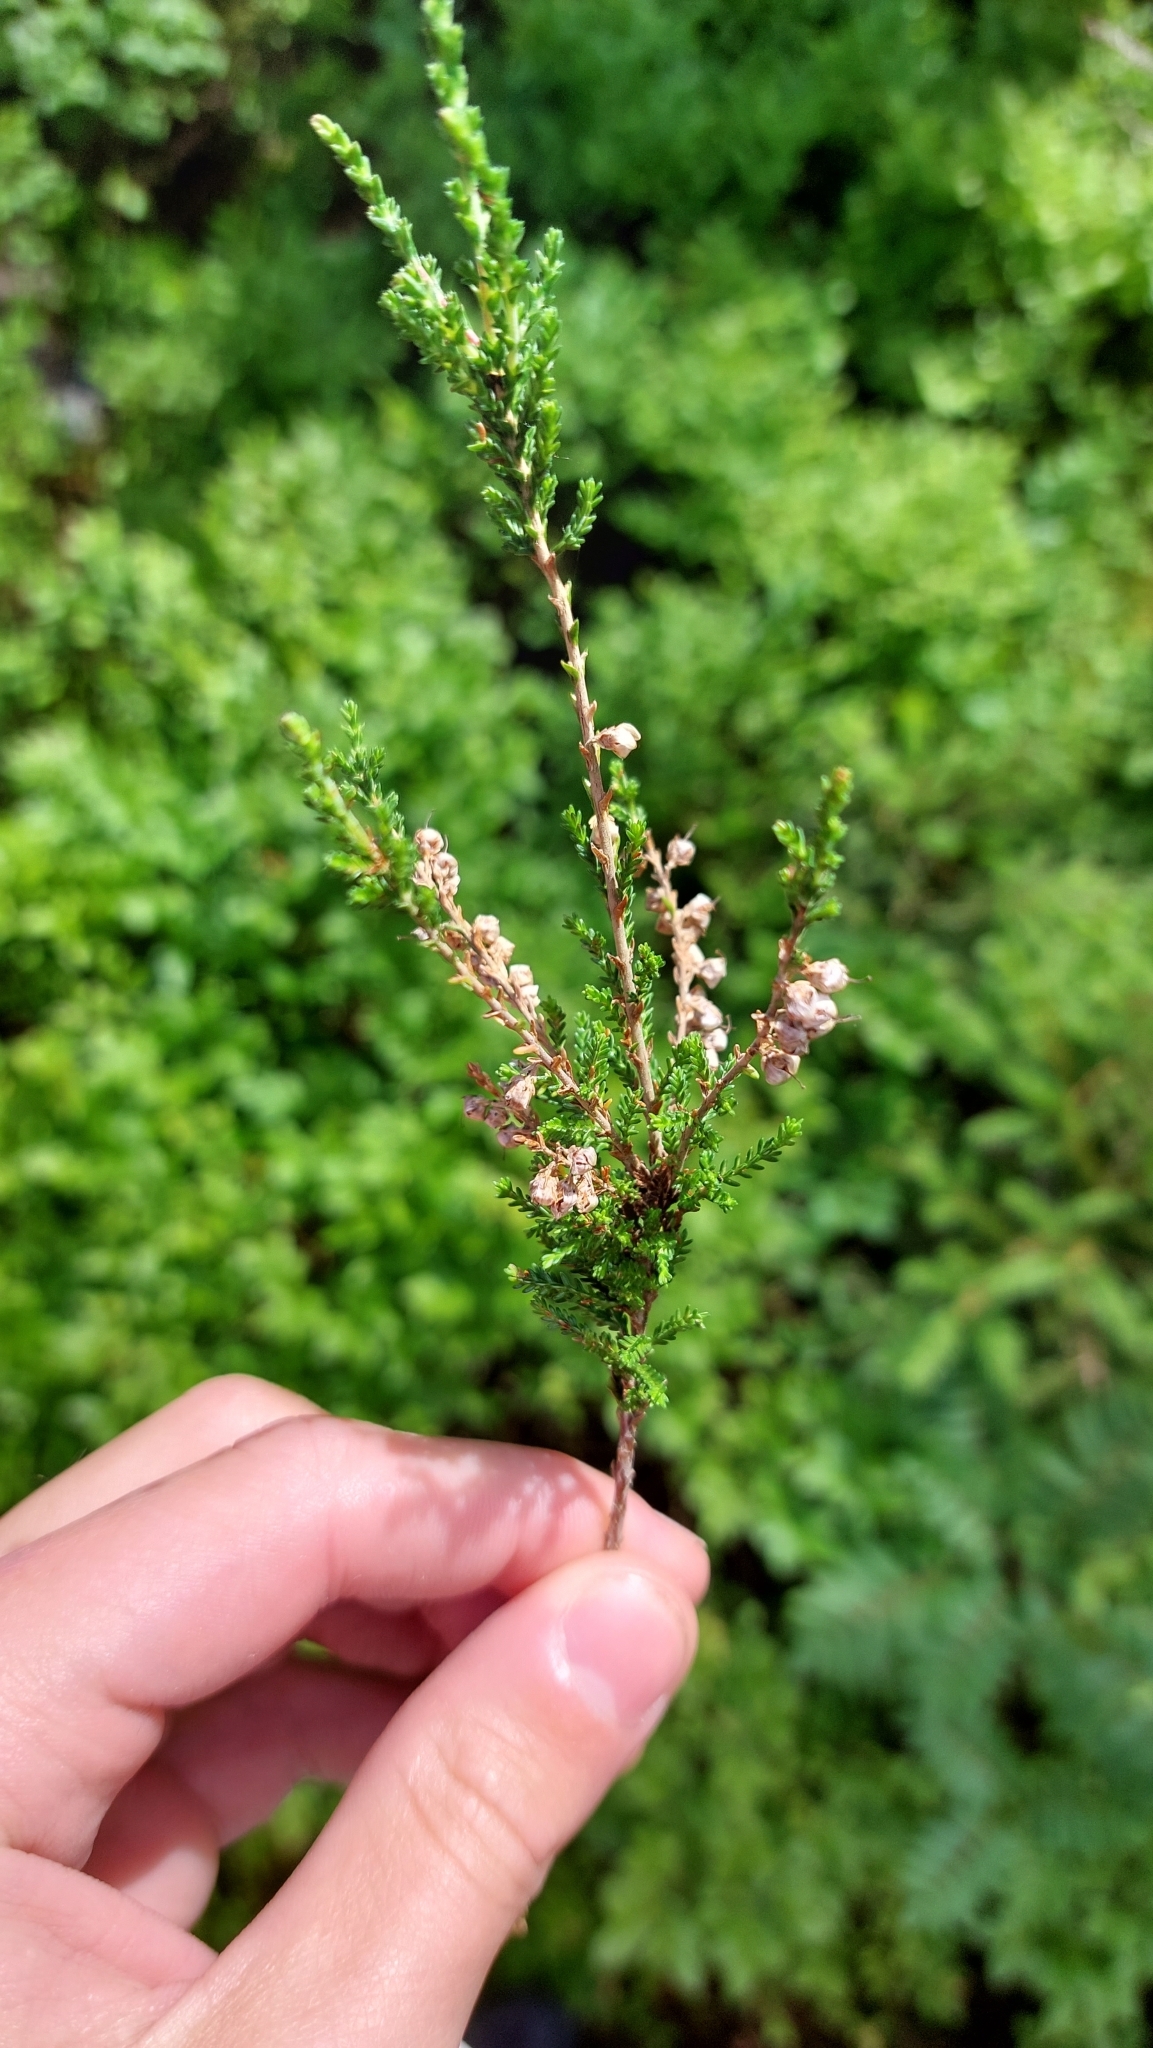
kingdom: Plantae
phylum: Tracheophyta
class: Magnoliopsida
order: Ericales
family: Ericaceae
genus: Calluna
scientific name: Calluna vulgaris
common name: Heather
